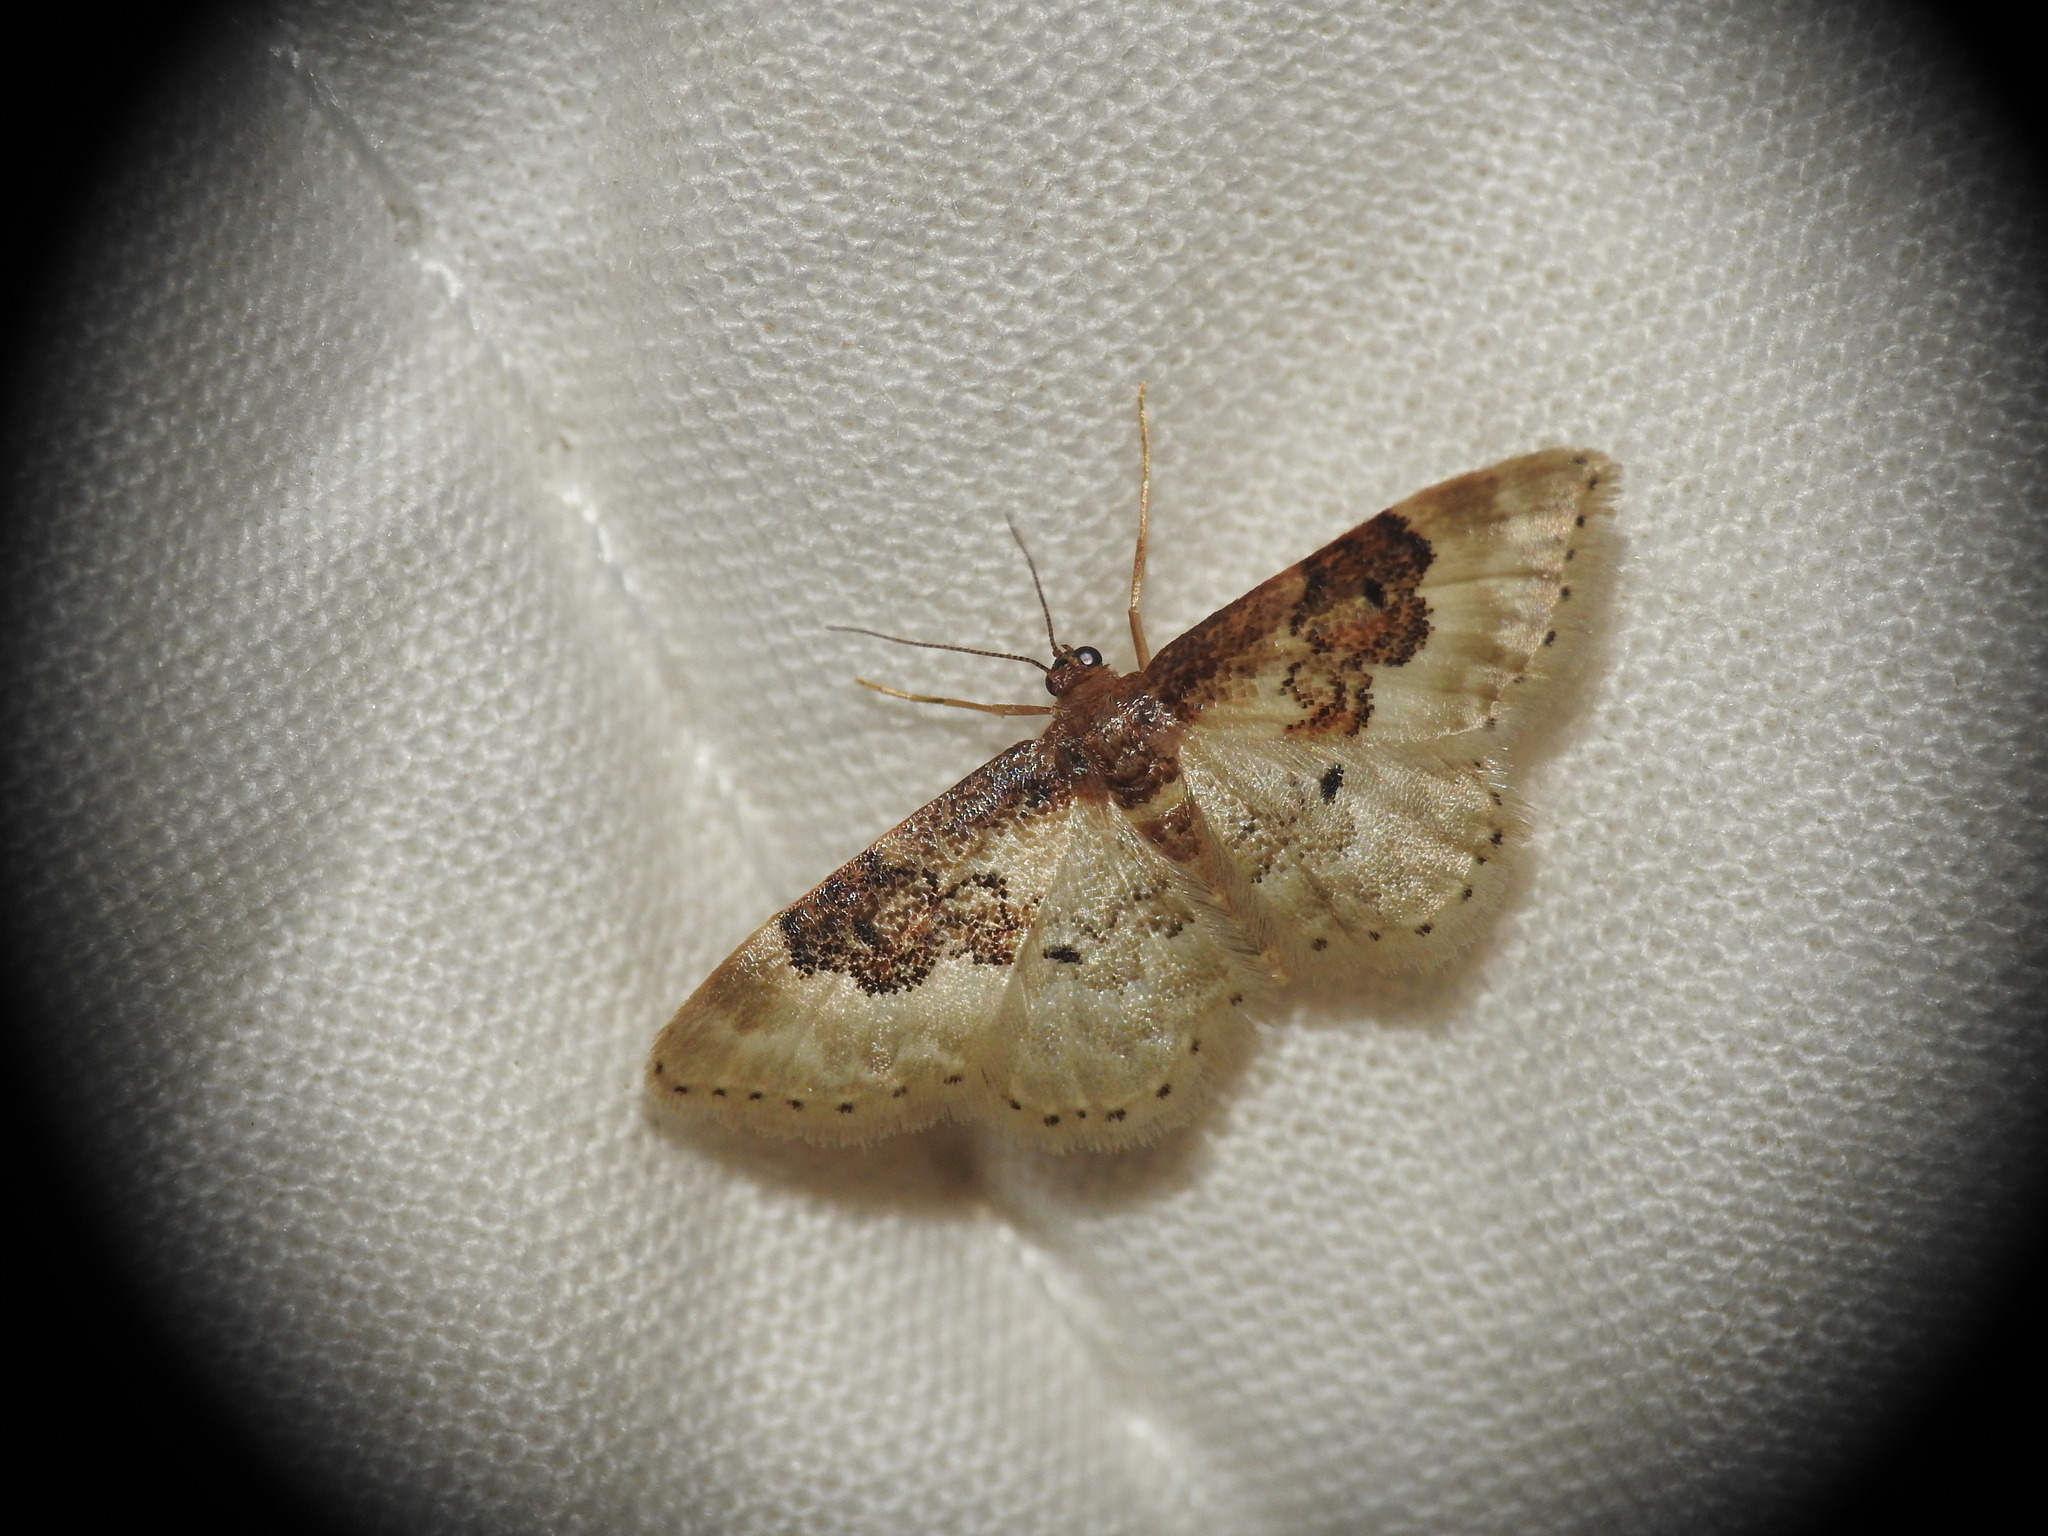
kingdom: Animalia
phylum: Arthropoda
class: Insecta
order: Lepidoptera
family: Geometridae
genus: Idaea
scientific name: Idaea rusticata
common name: Least carpet
